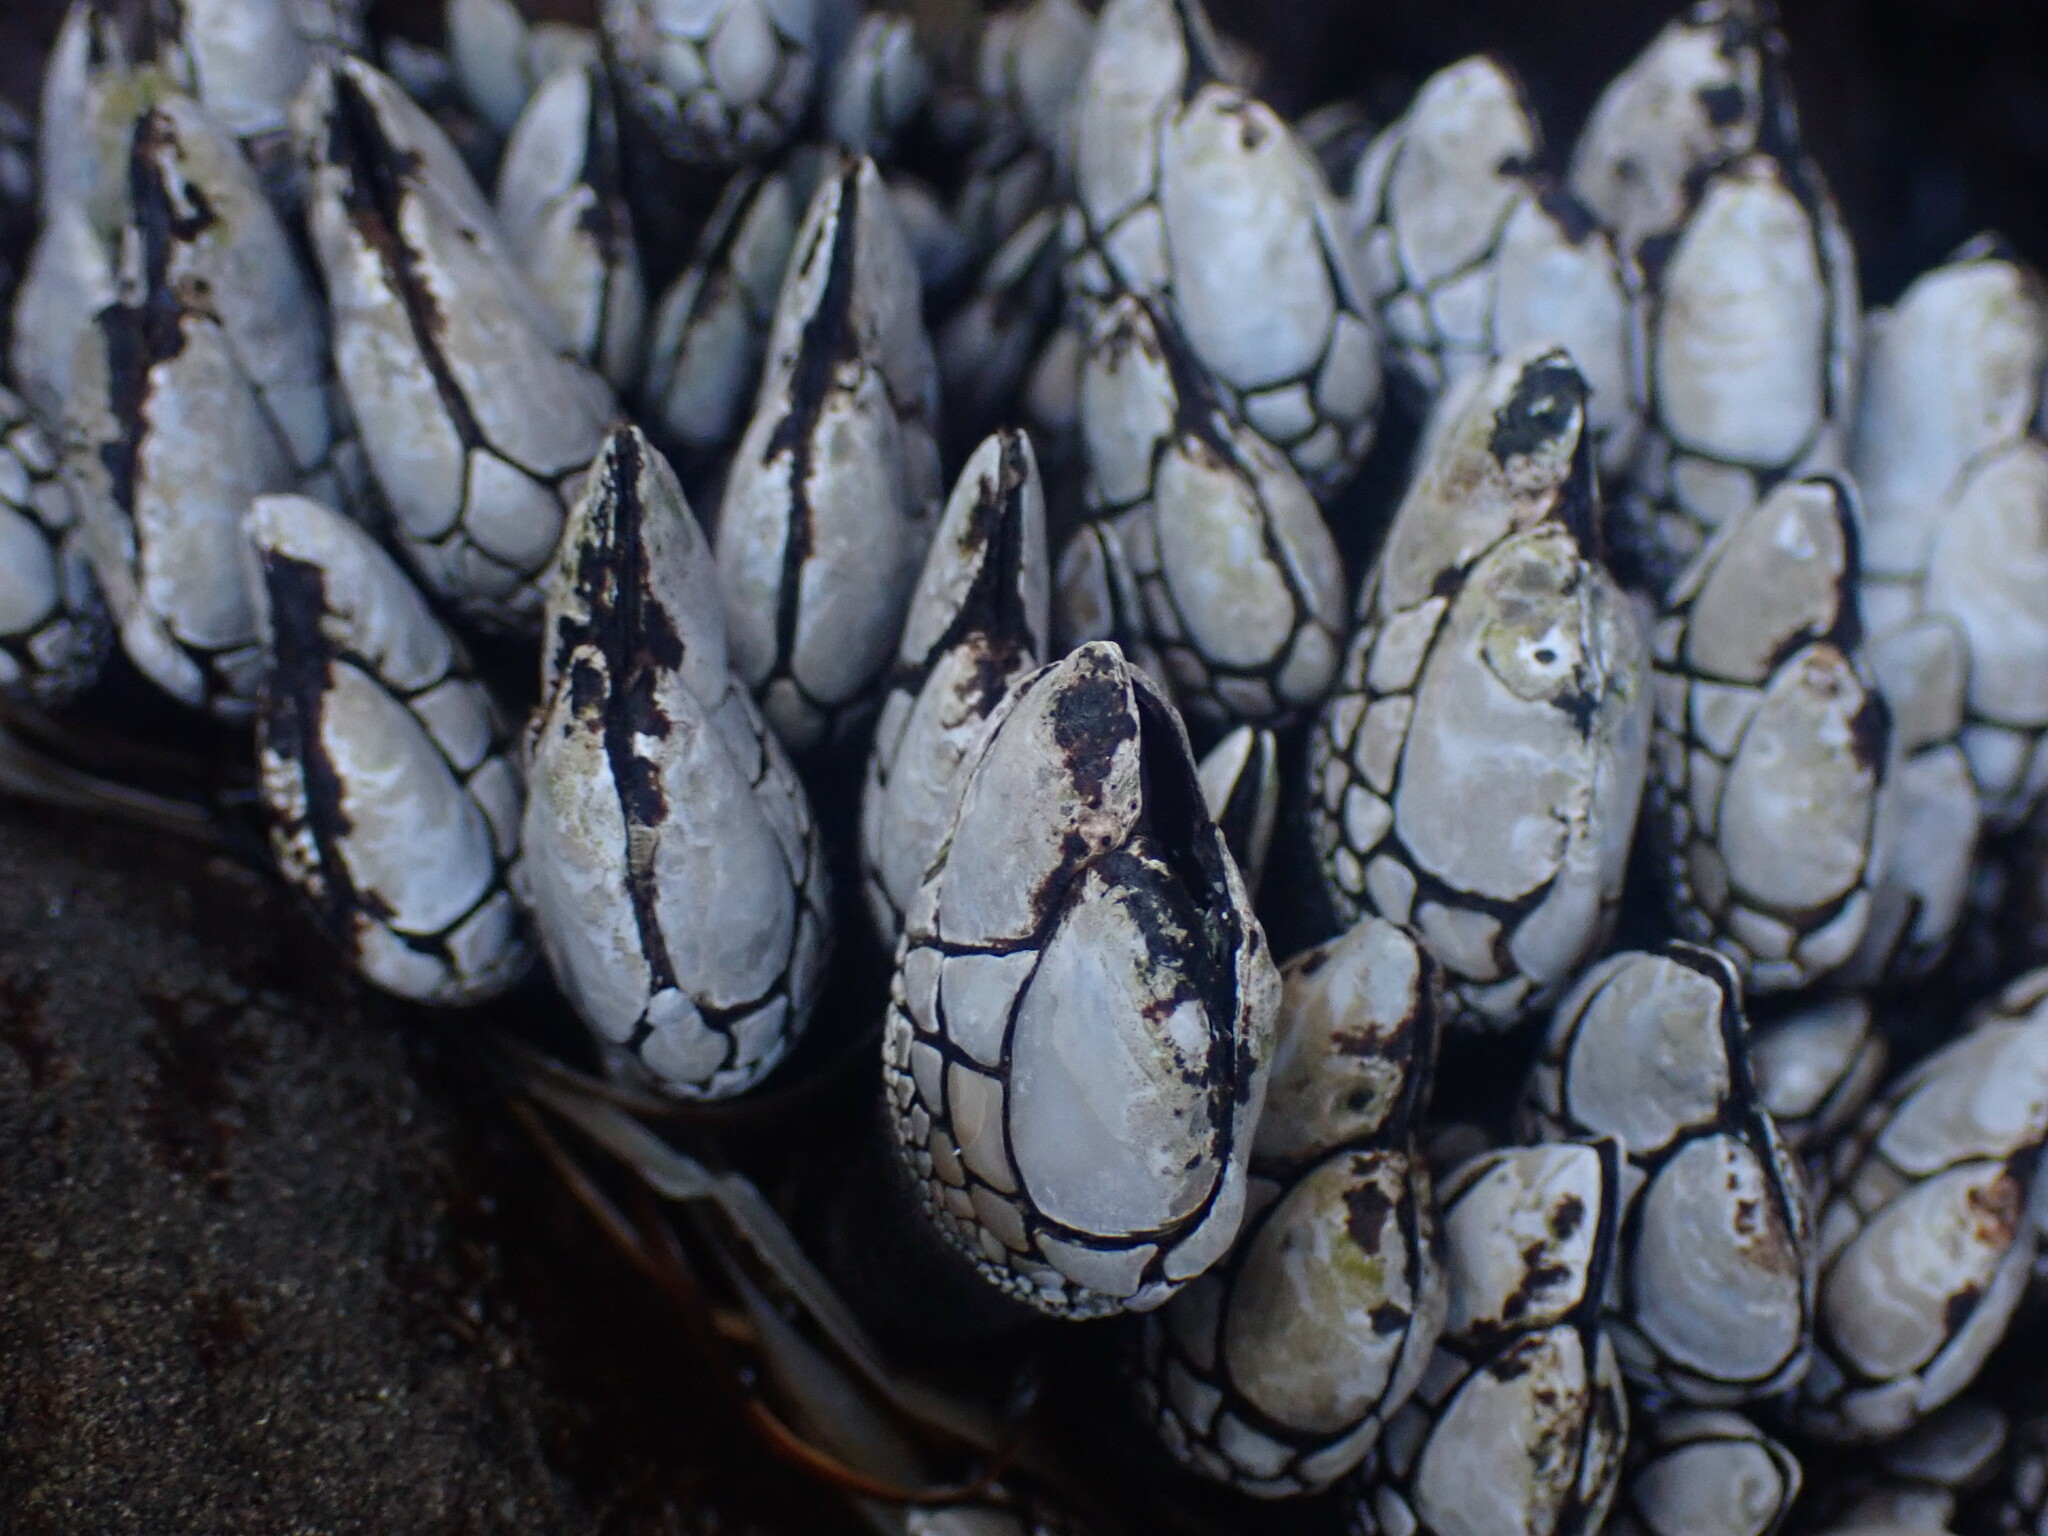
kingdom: Animalia
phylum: Arthropoda
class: Maxillopoda
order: Pedunculata
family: Pollicipedidae
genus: Pollicipes
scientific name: Pollicipes polymerus
